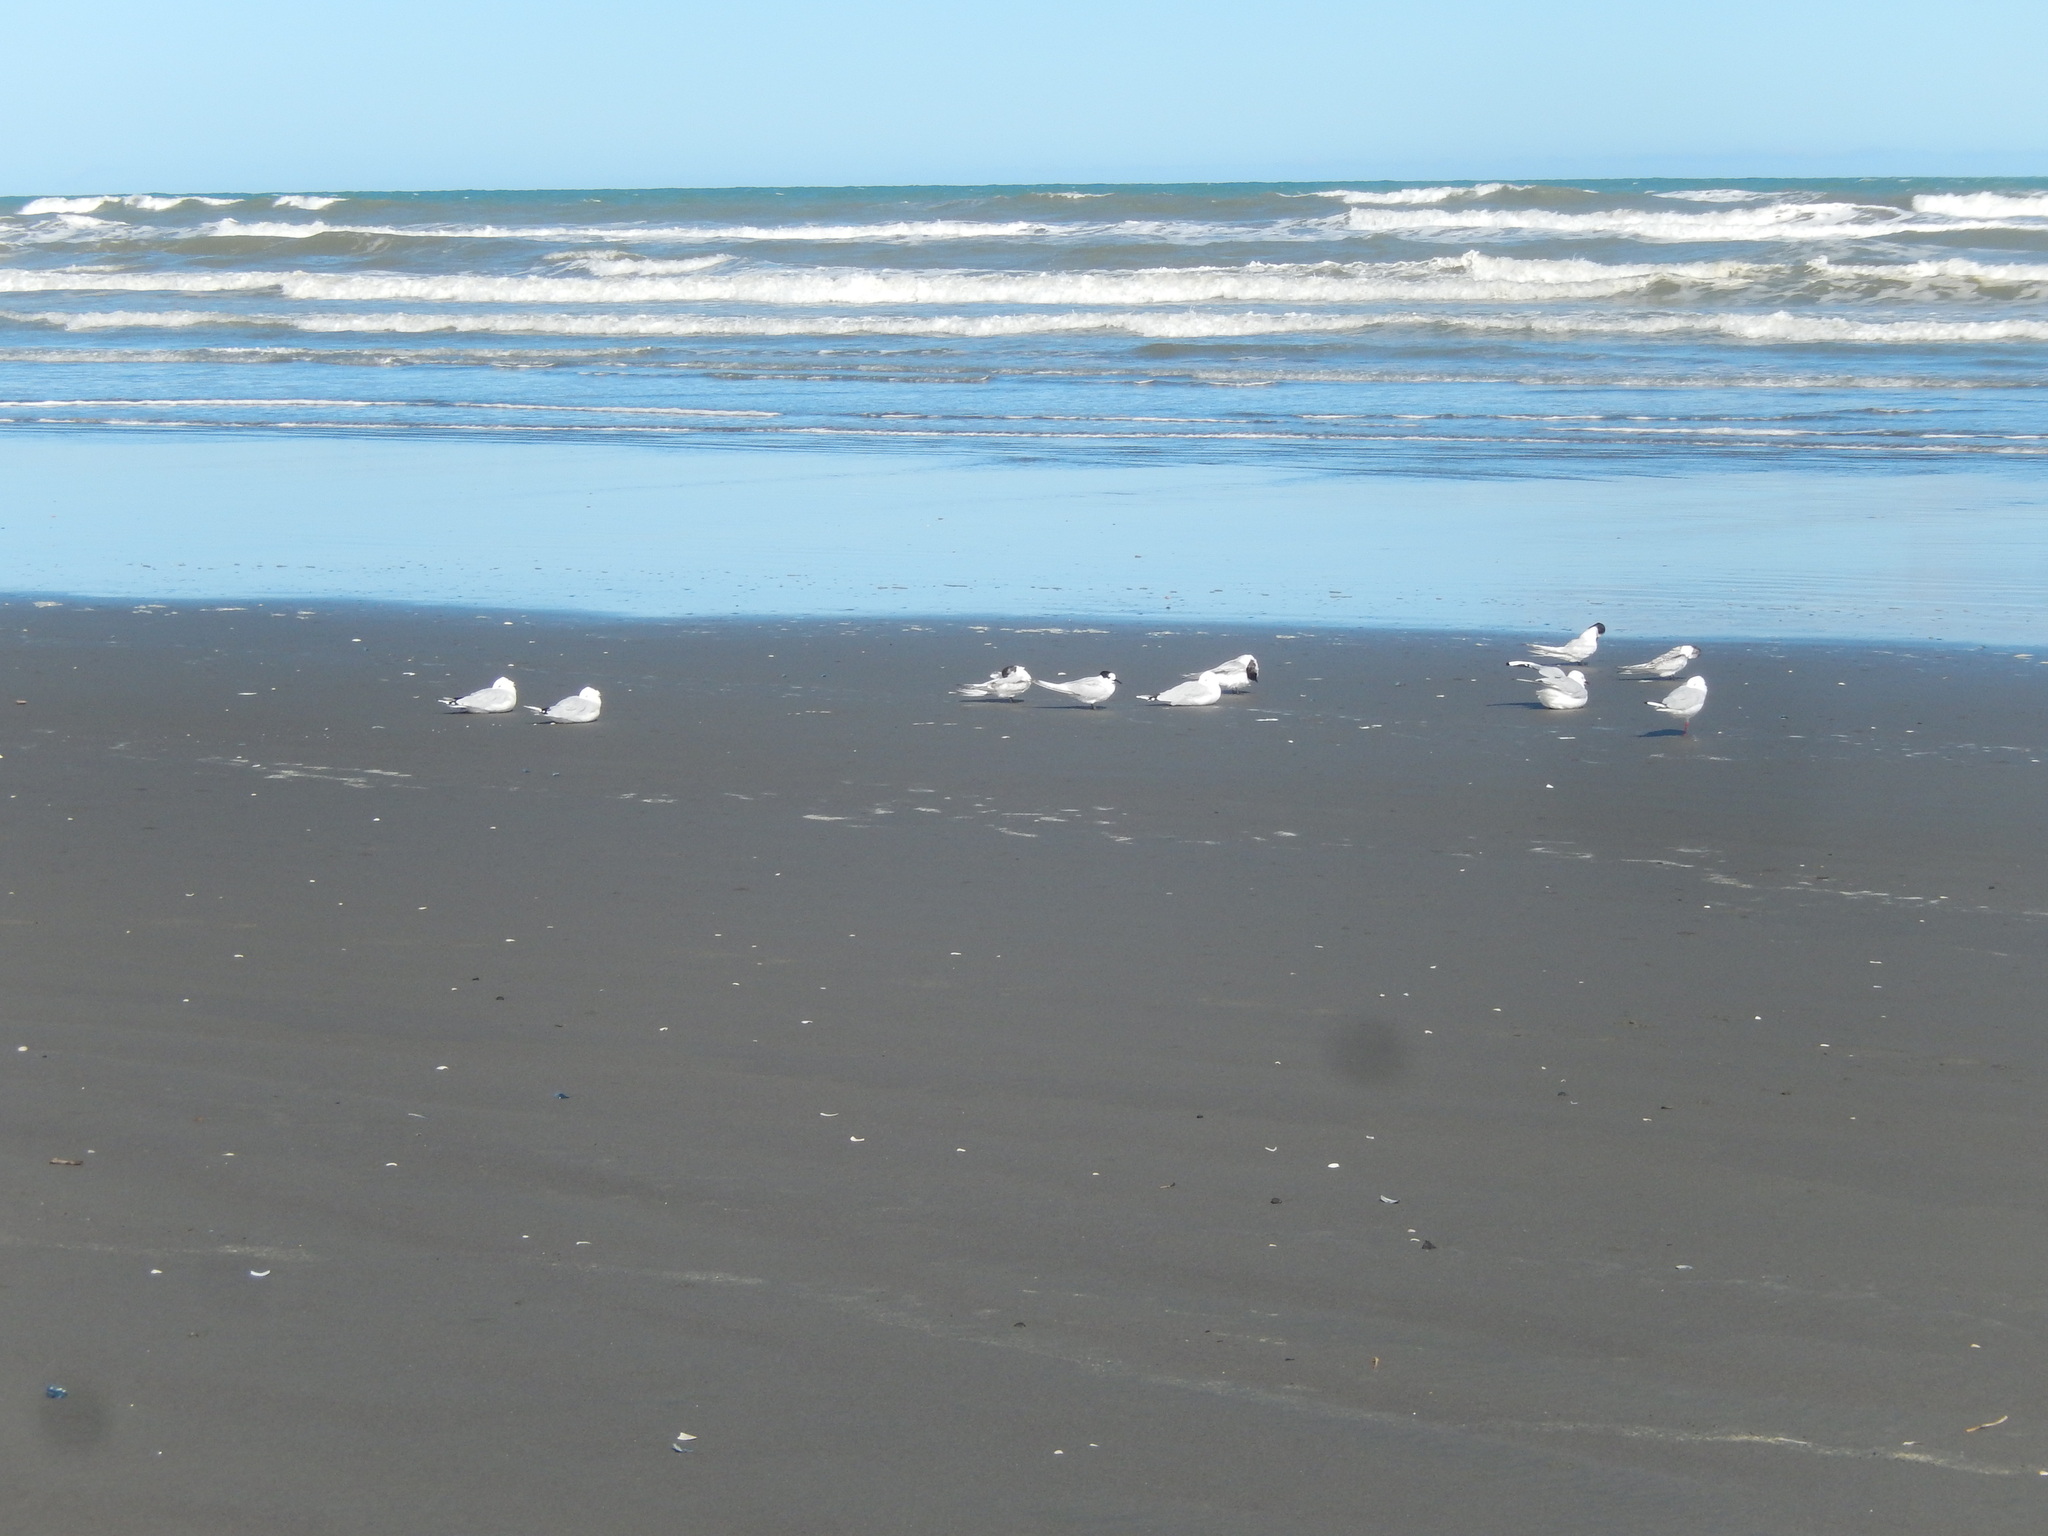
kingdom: Animalia
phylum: Chordata
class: Aves
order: Charadriiformes
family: Laridae
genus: Sterna
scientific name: Sterna striata
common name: White-fronted tern
